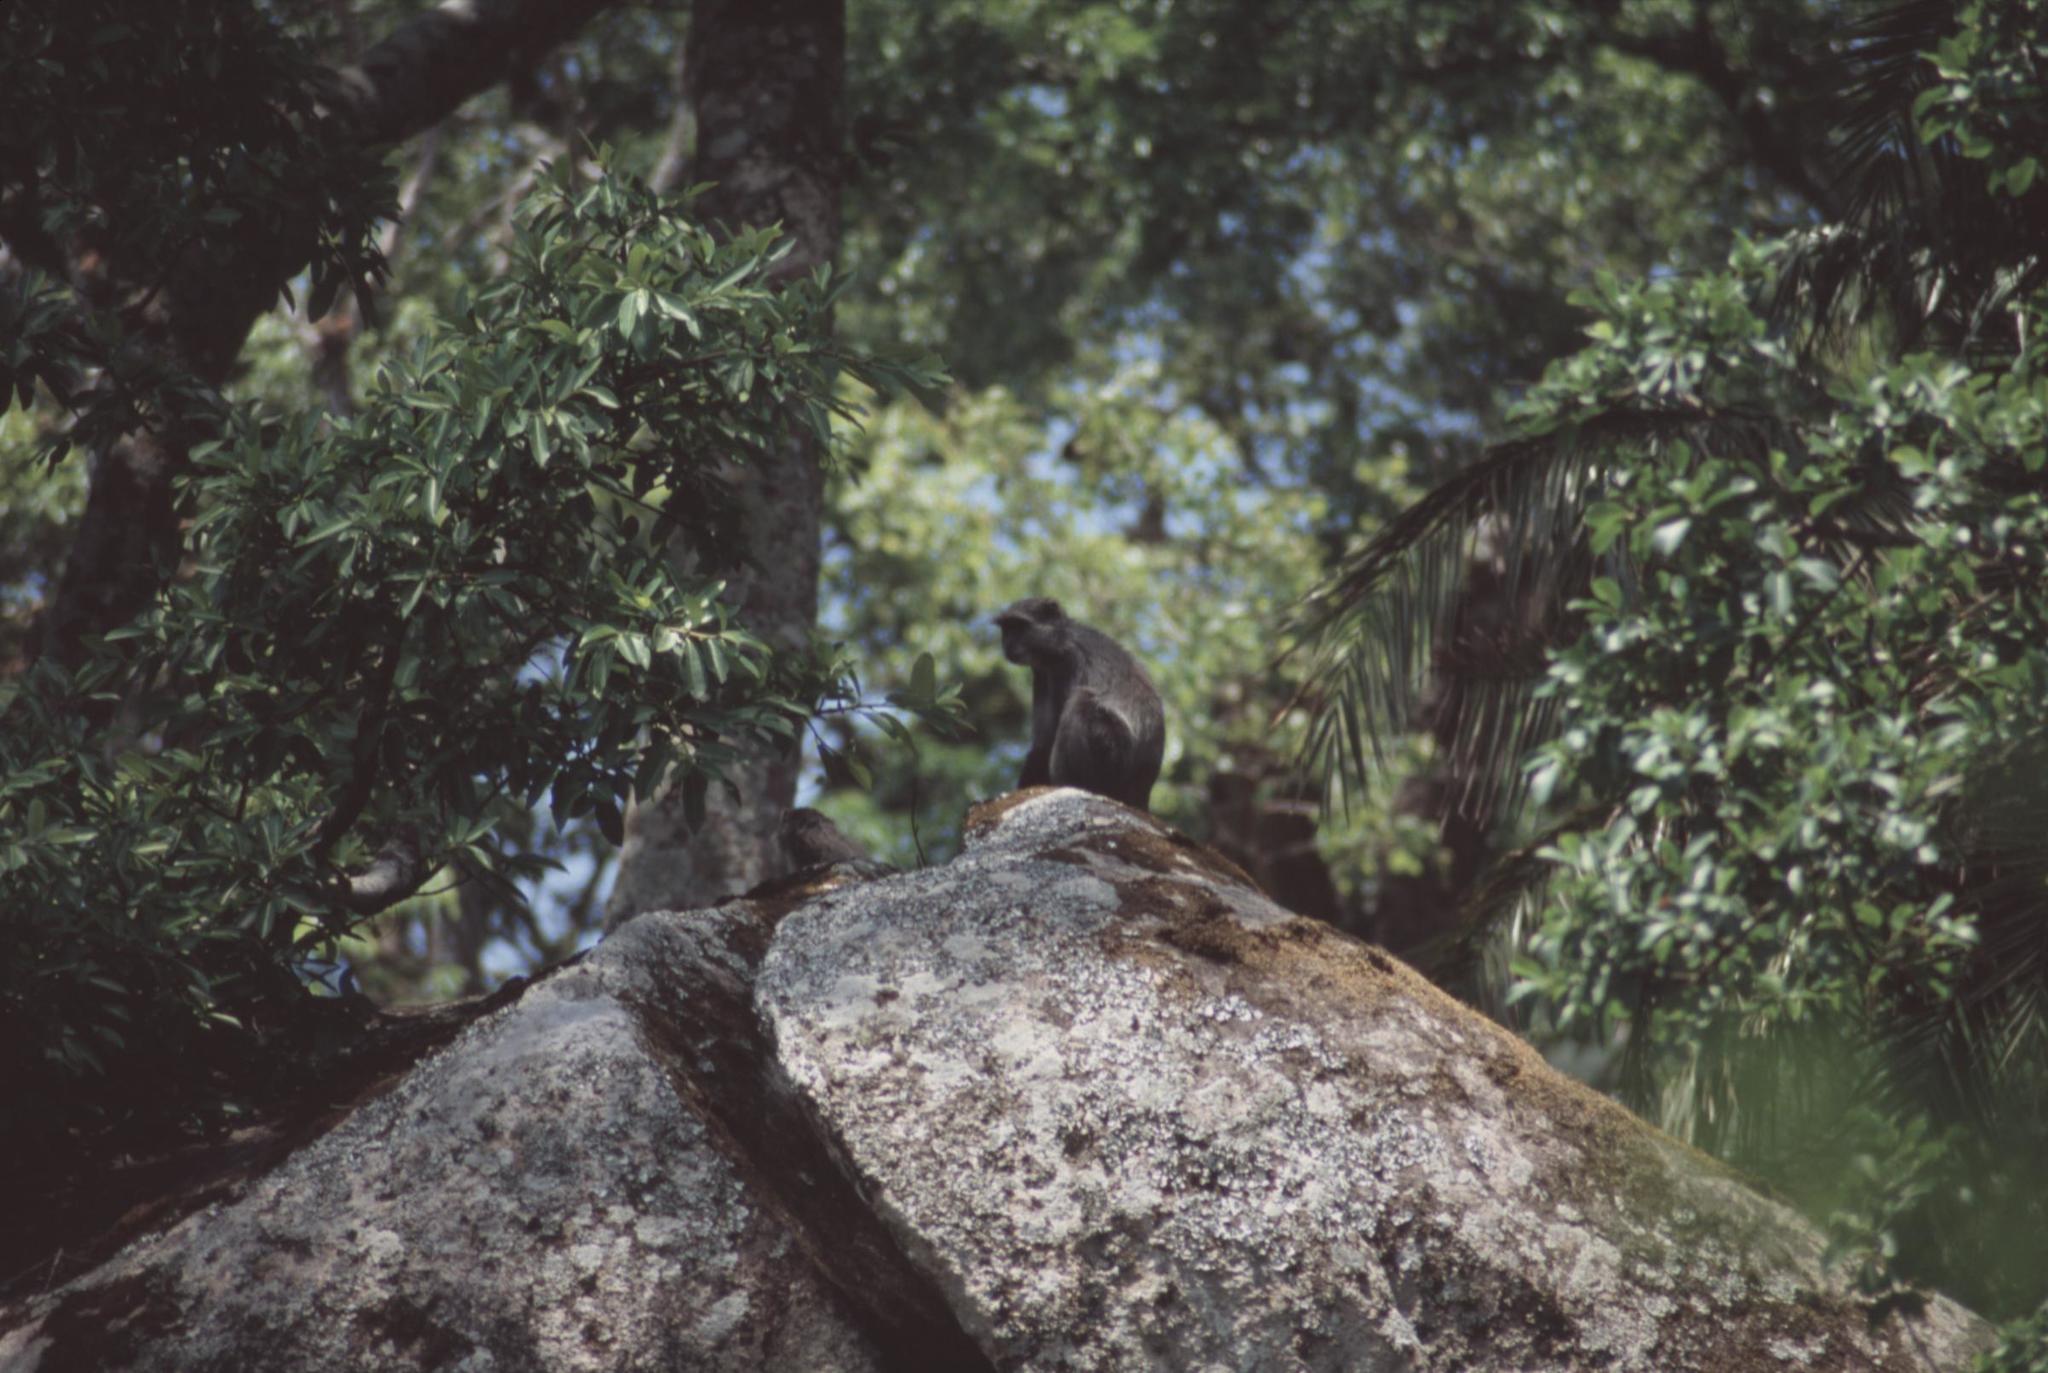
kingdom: Animalia
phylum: Chordata
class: Mammalia
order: Primates
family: Cercopithecidae
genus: Cercopithecus
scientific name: Cercopithecus mitis
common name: Blue monkey
